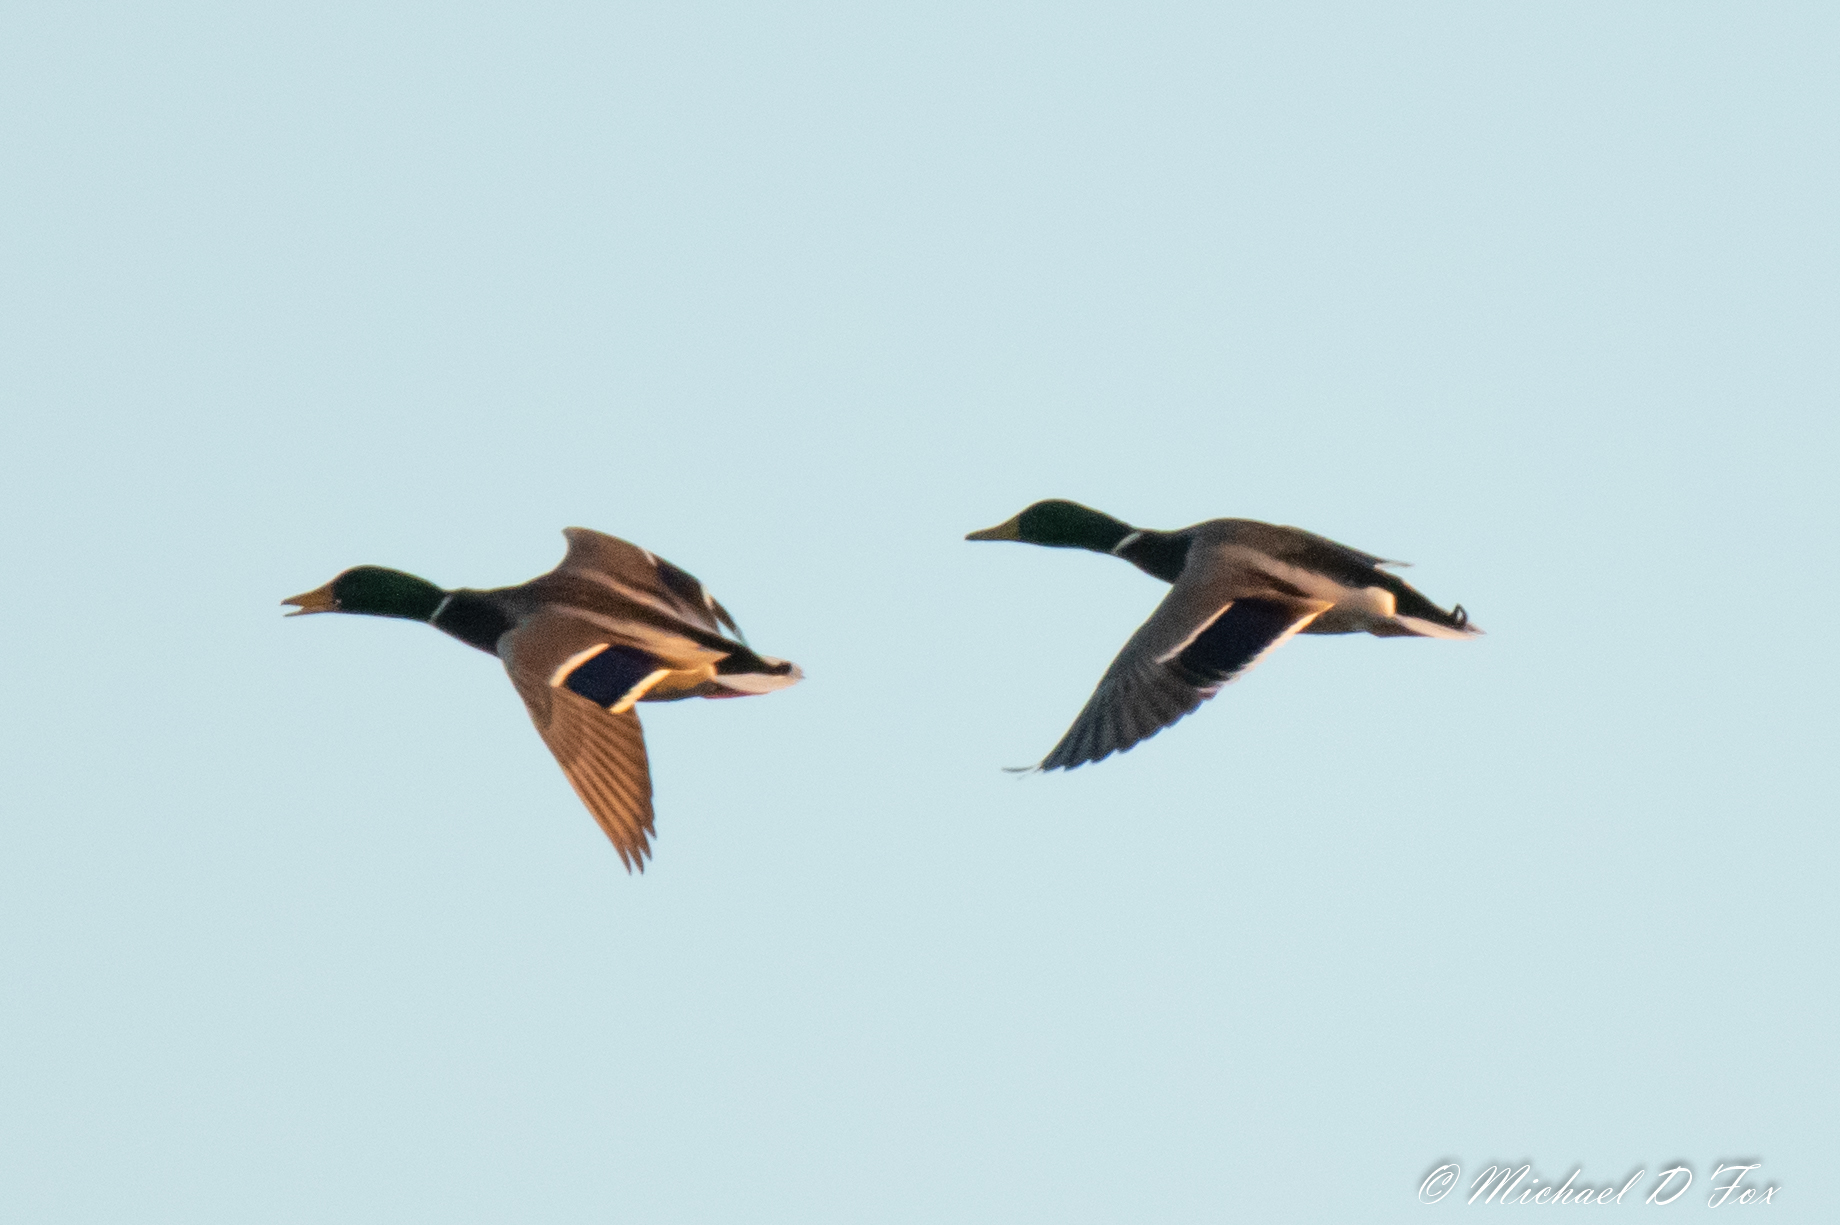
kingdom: Animalia
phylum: Chordata
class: Aves
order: Anseriformes
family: Anatidae
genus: Anas
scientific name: Anas platyrhynchos
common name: Mallard
